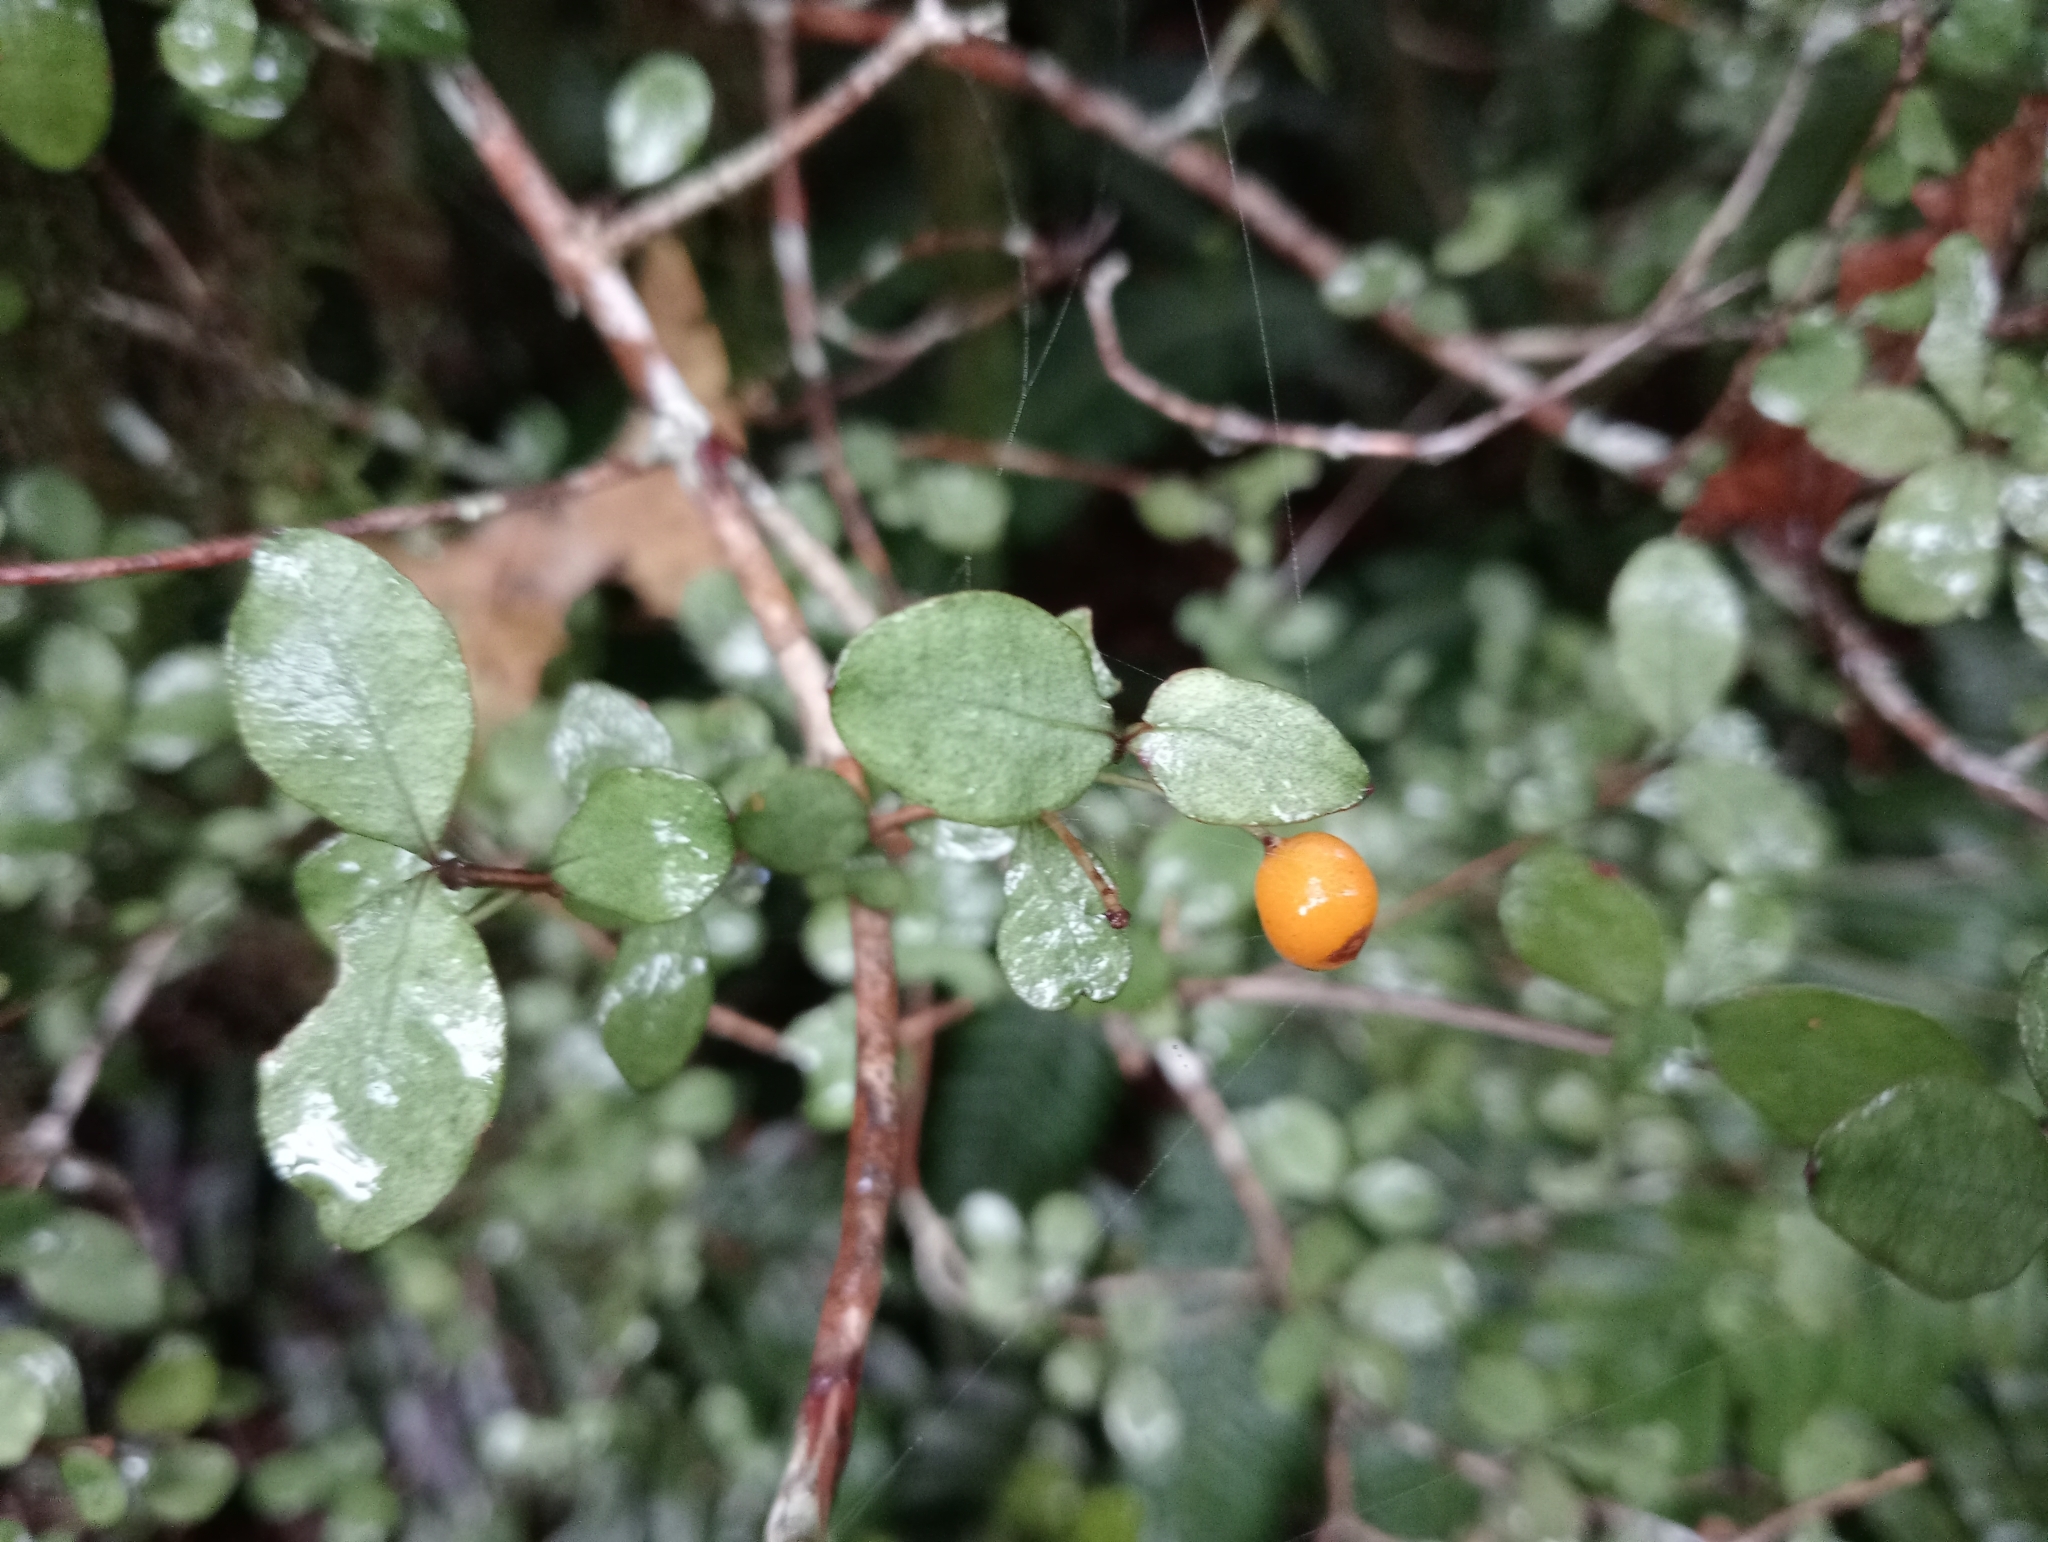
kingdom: Plantae
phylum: Tracheophyta
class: Magnoliopsida
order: Myrtales
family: Myrtaceae
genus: Neomyrtus
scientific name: Neomyrtus pedunculata
